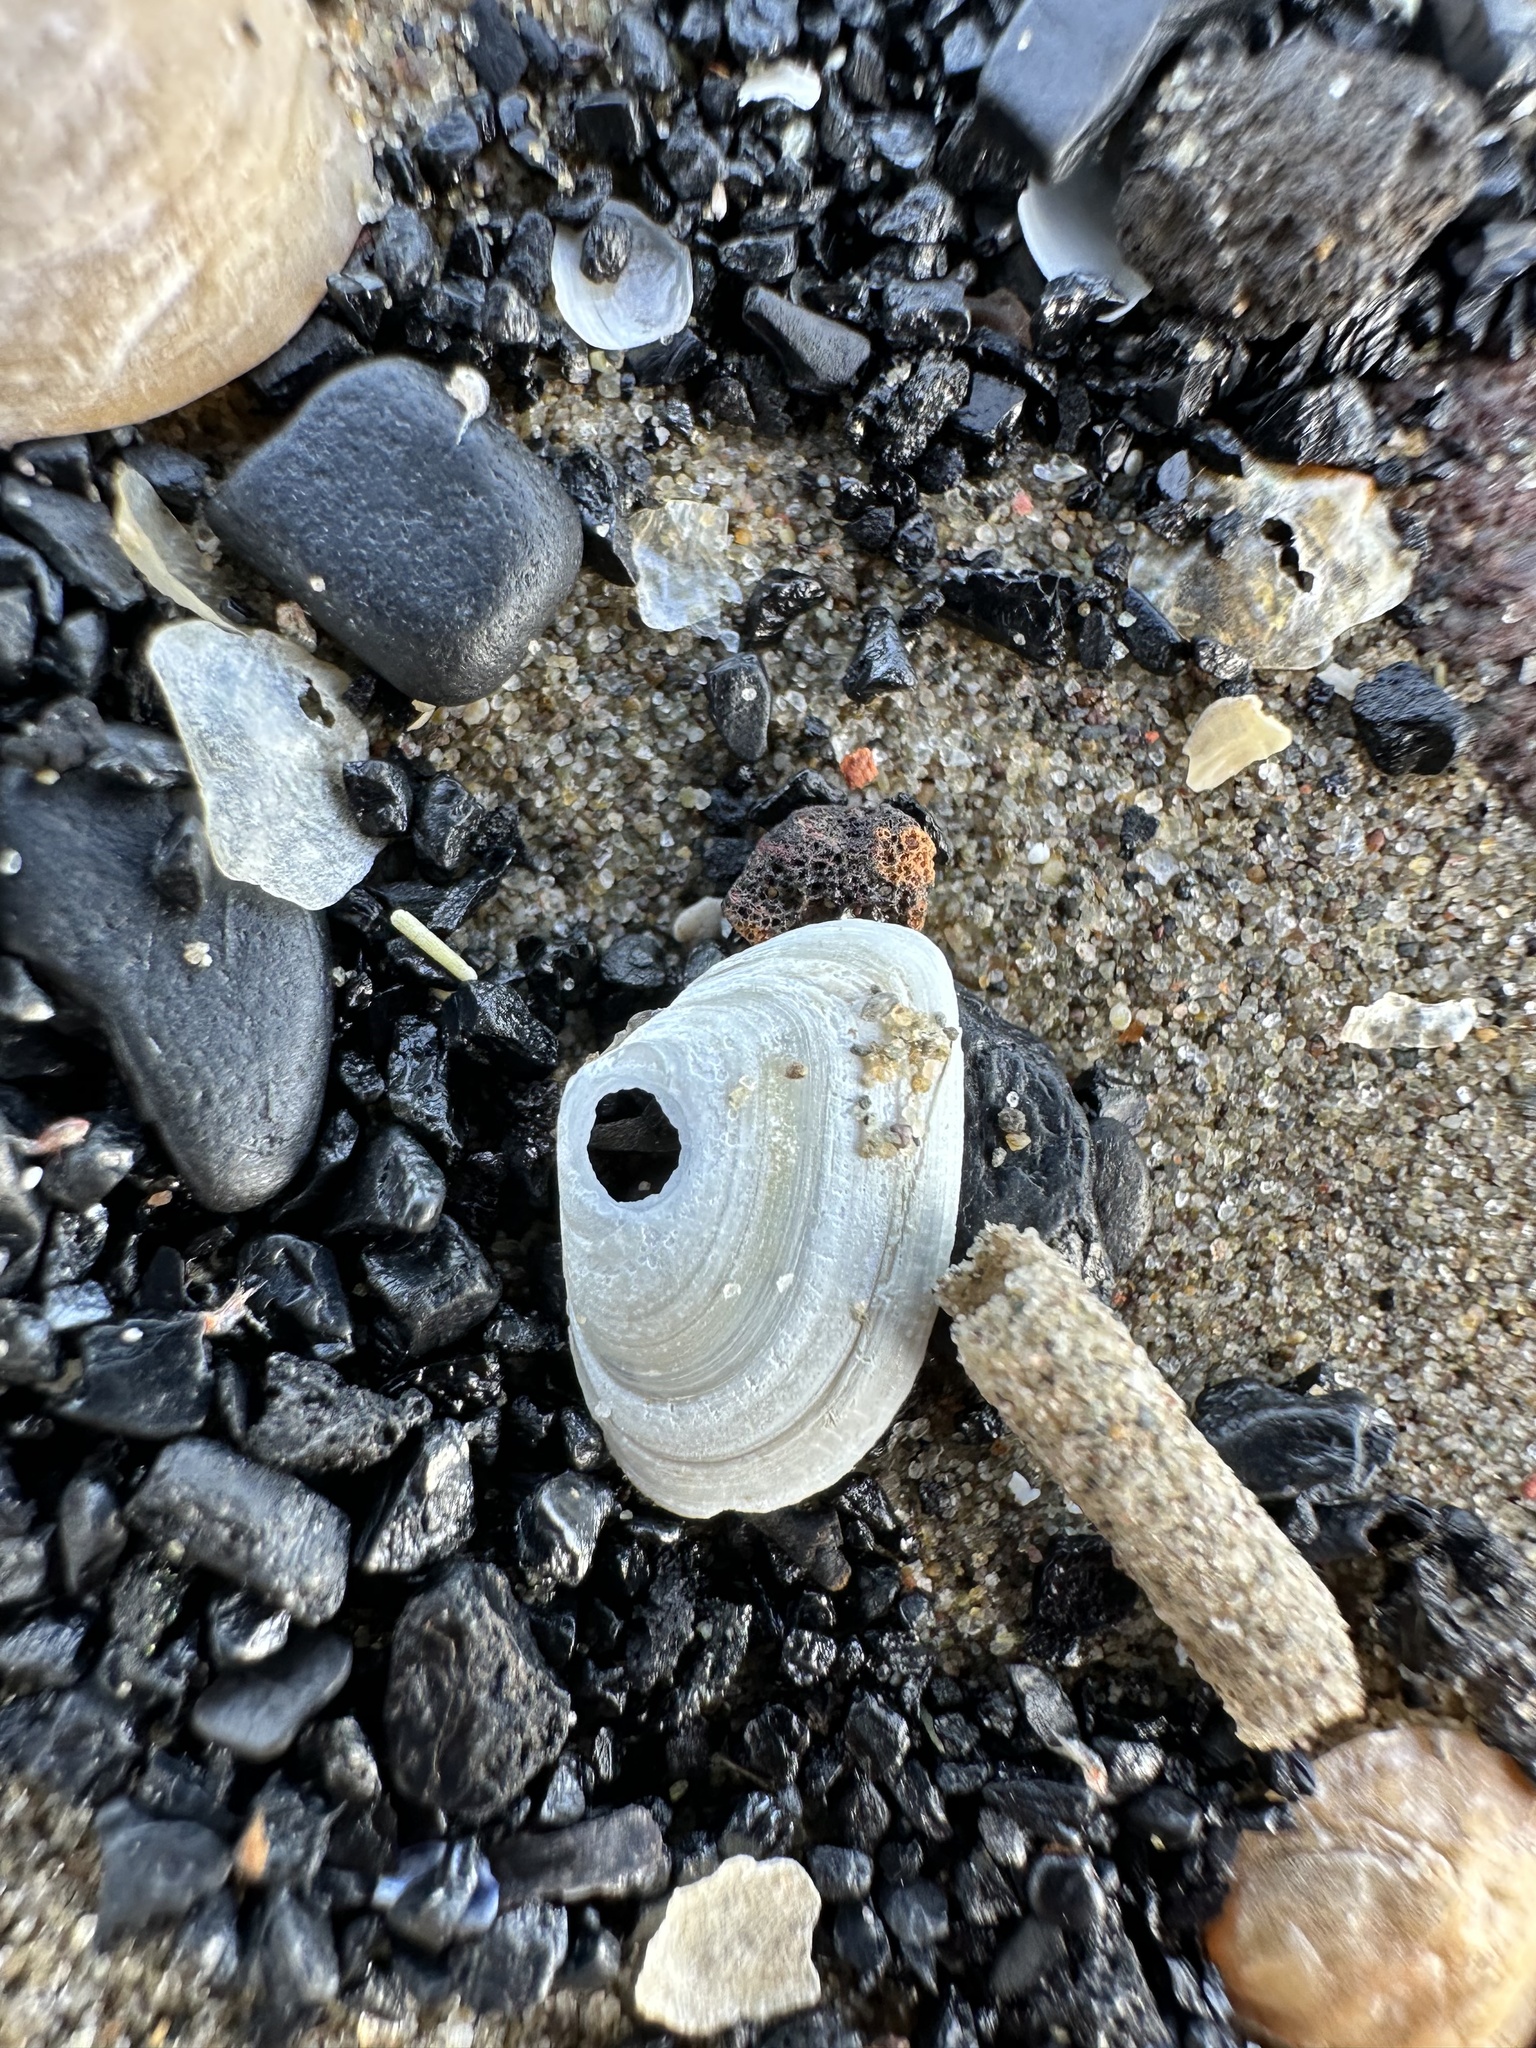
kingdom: Animalia
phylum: Mollusca
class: Bivalvia
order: Venerida
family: Mesodesmatidae
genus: Mesodesma
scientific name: Mesodesma arctatum
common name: Compressed clam
